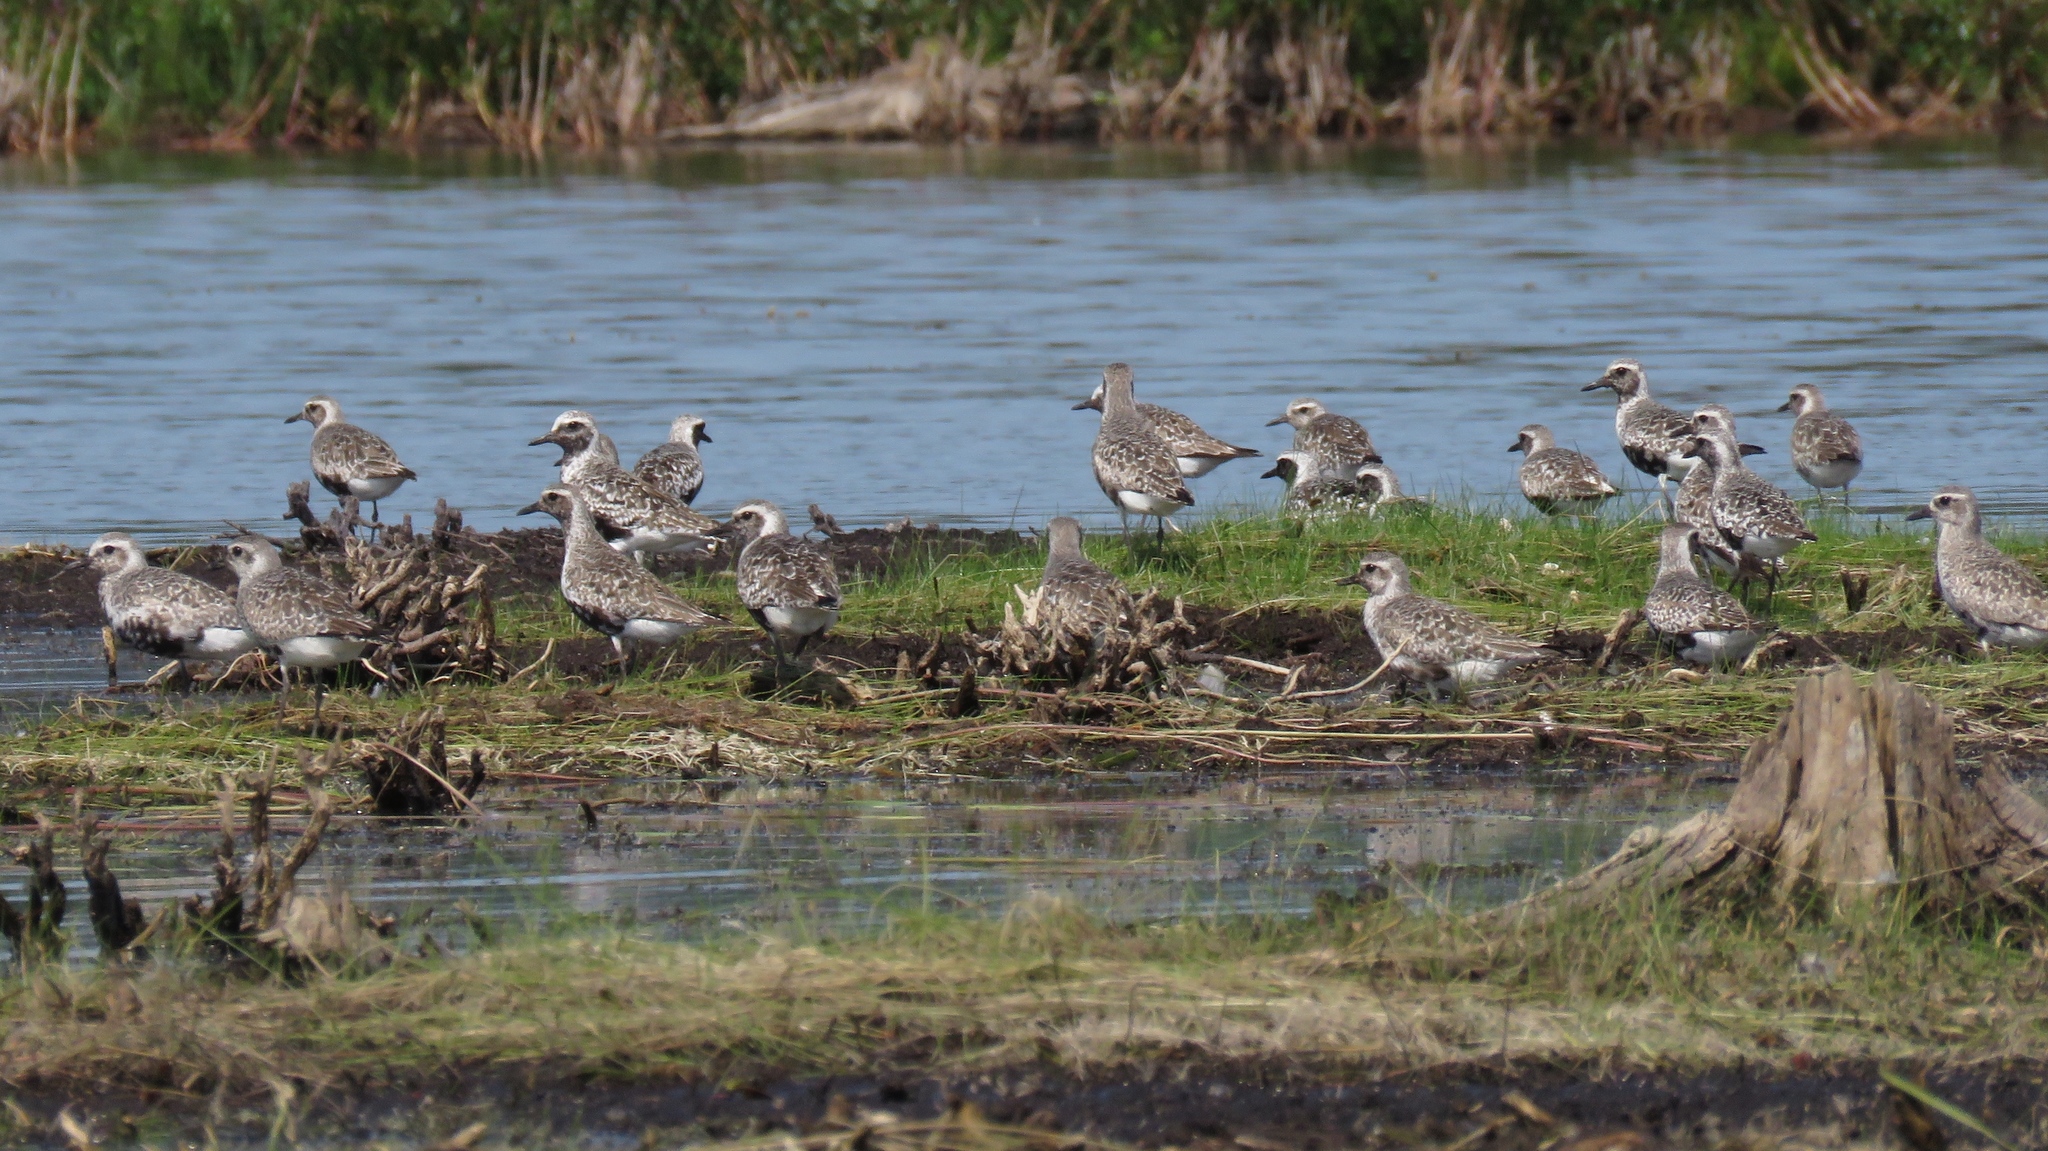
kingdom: Animalia
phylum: Chordata
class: Aves
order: Charadriiformes
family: Charadriidae
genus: Pluvialis
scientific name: Pluvialis squatarola
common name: Grey plover
